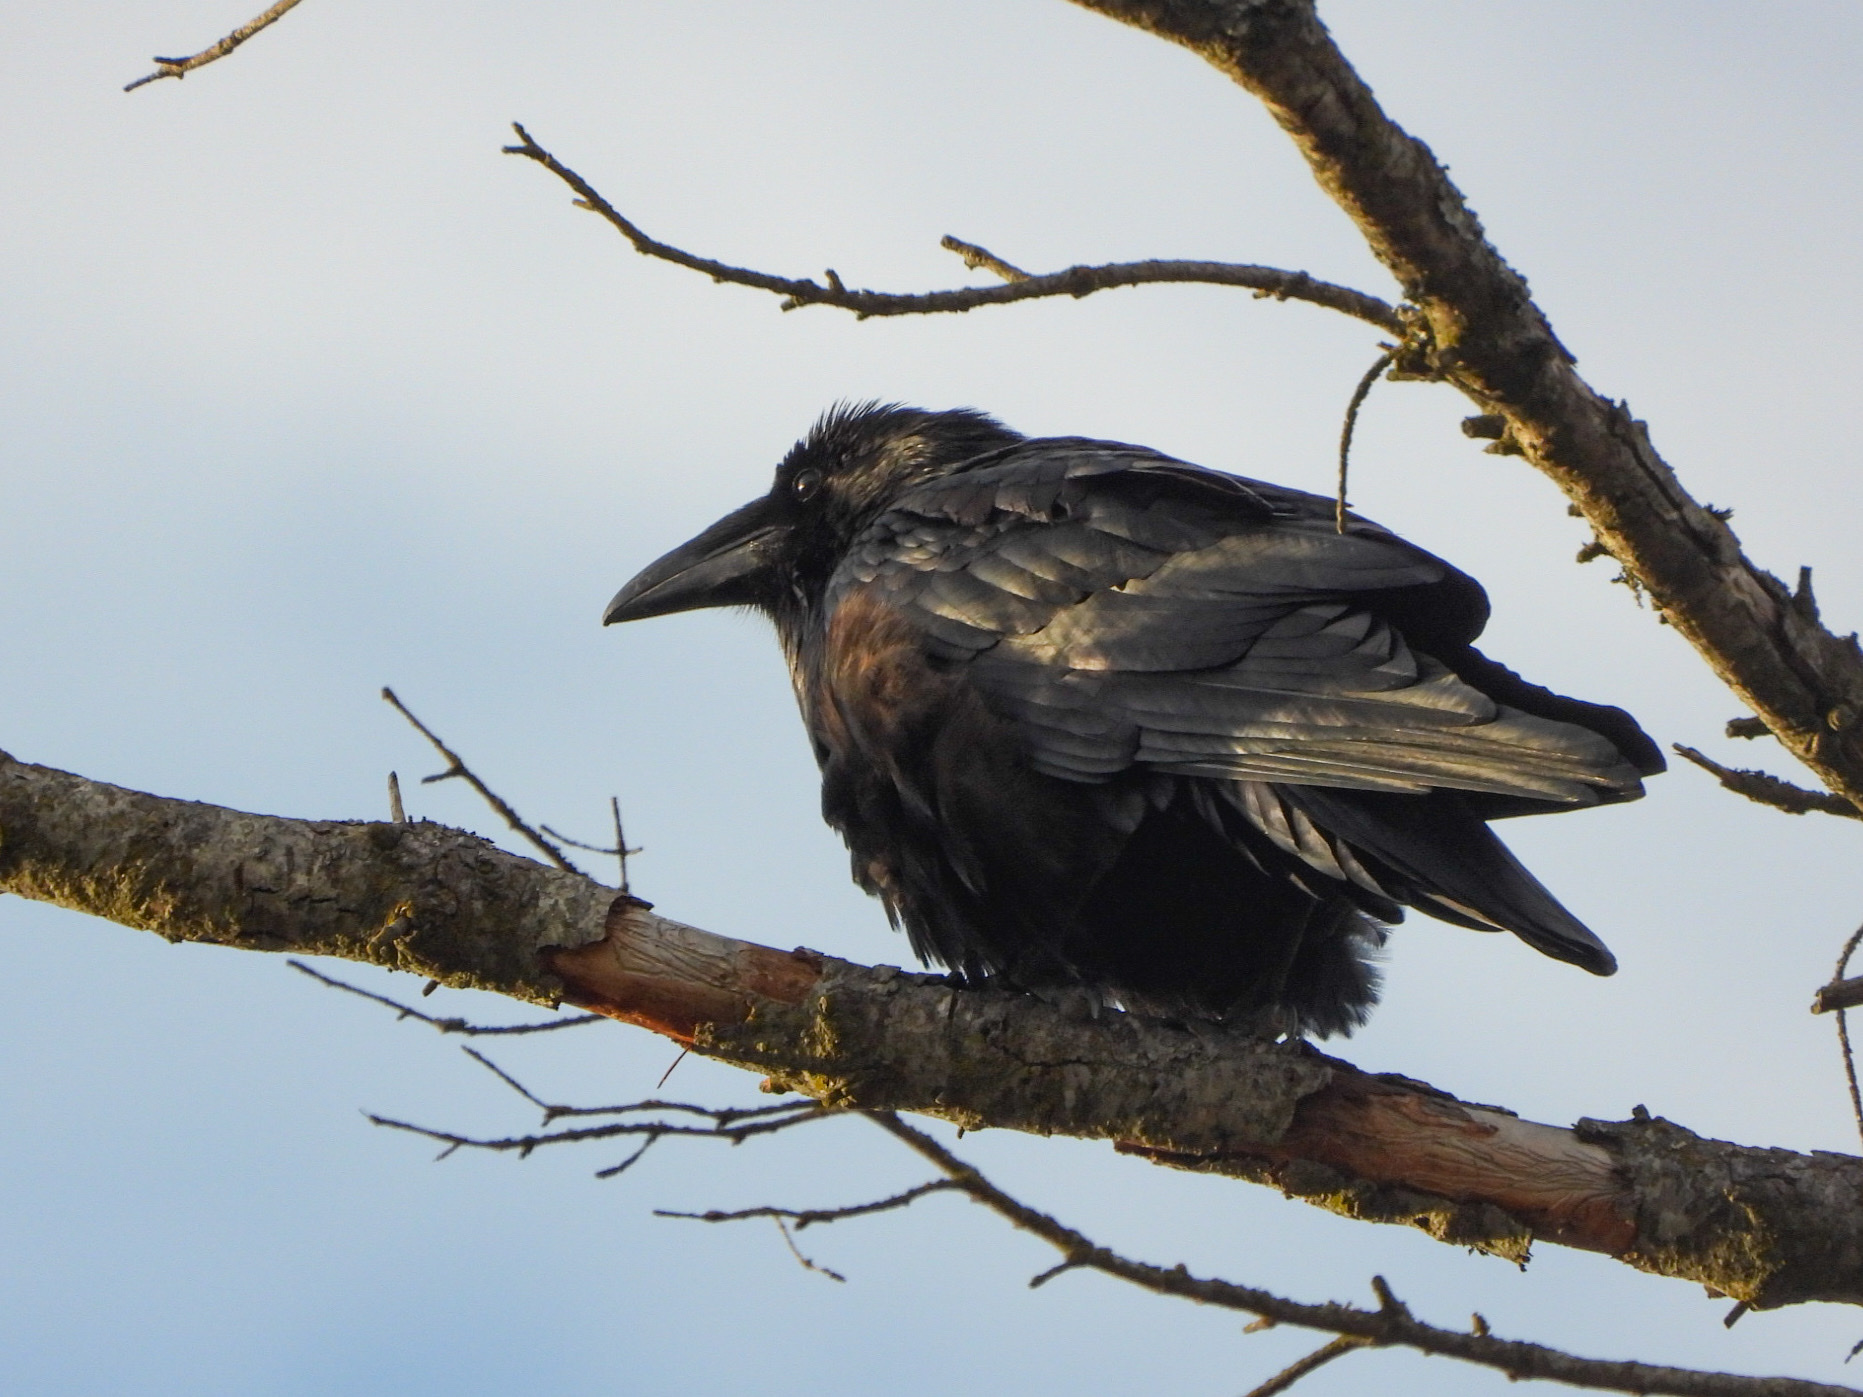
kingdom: Animalia
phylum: Chordata
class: Aves
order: Passeriformes
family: Corvidae
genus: Corvus
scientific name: Corvus corax
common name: Common raven
